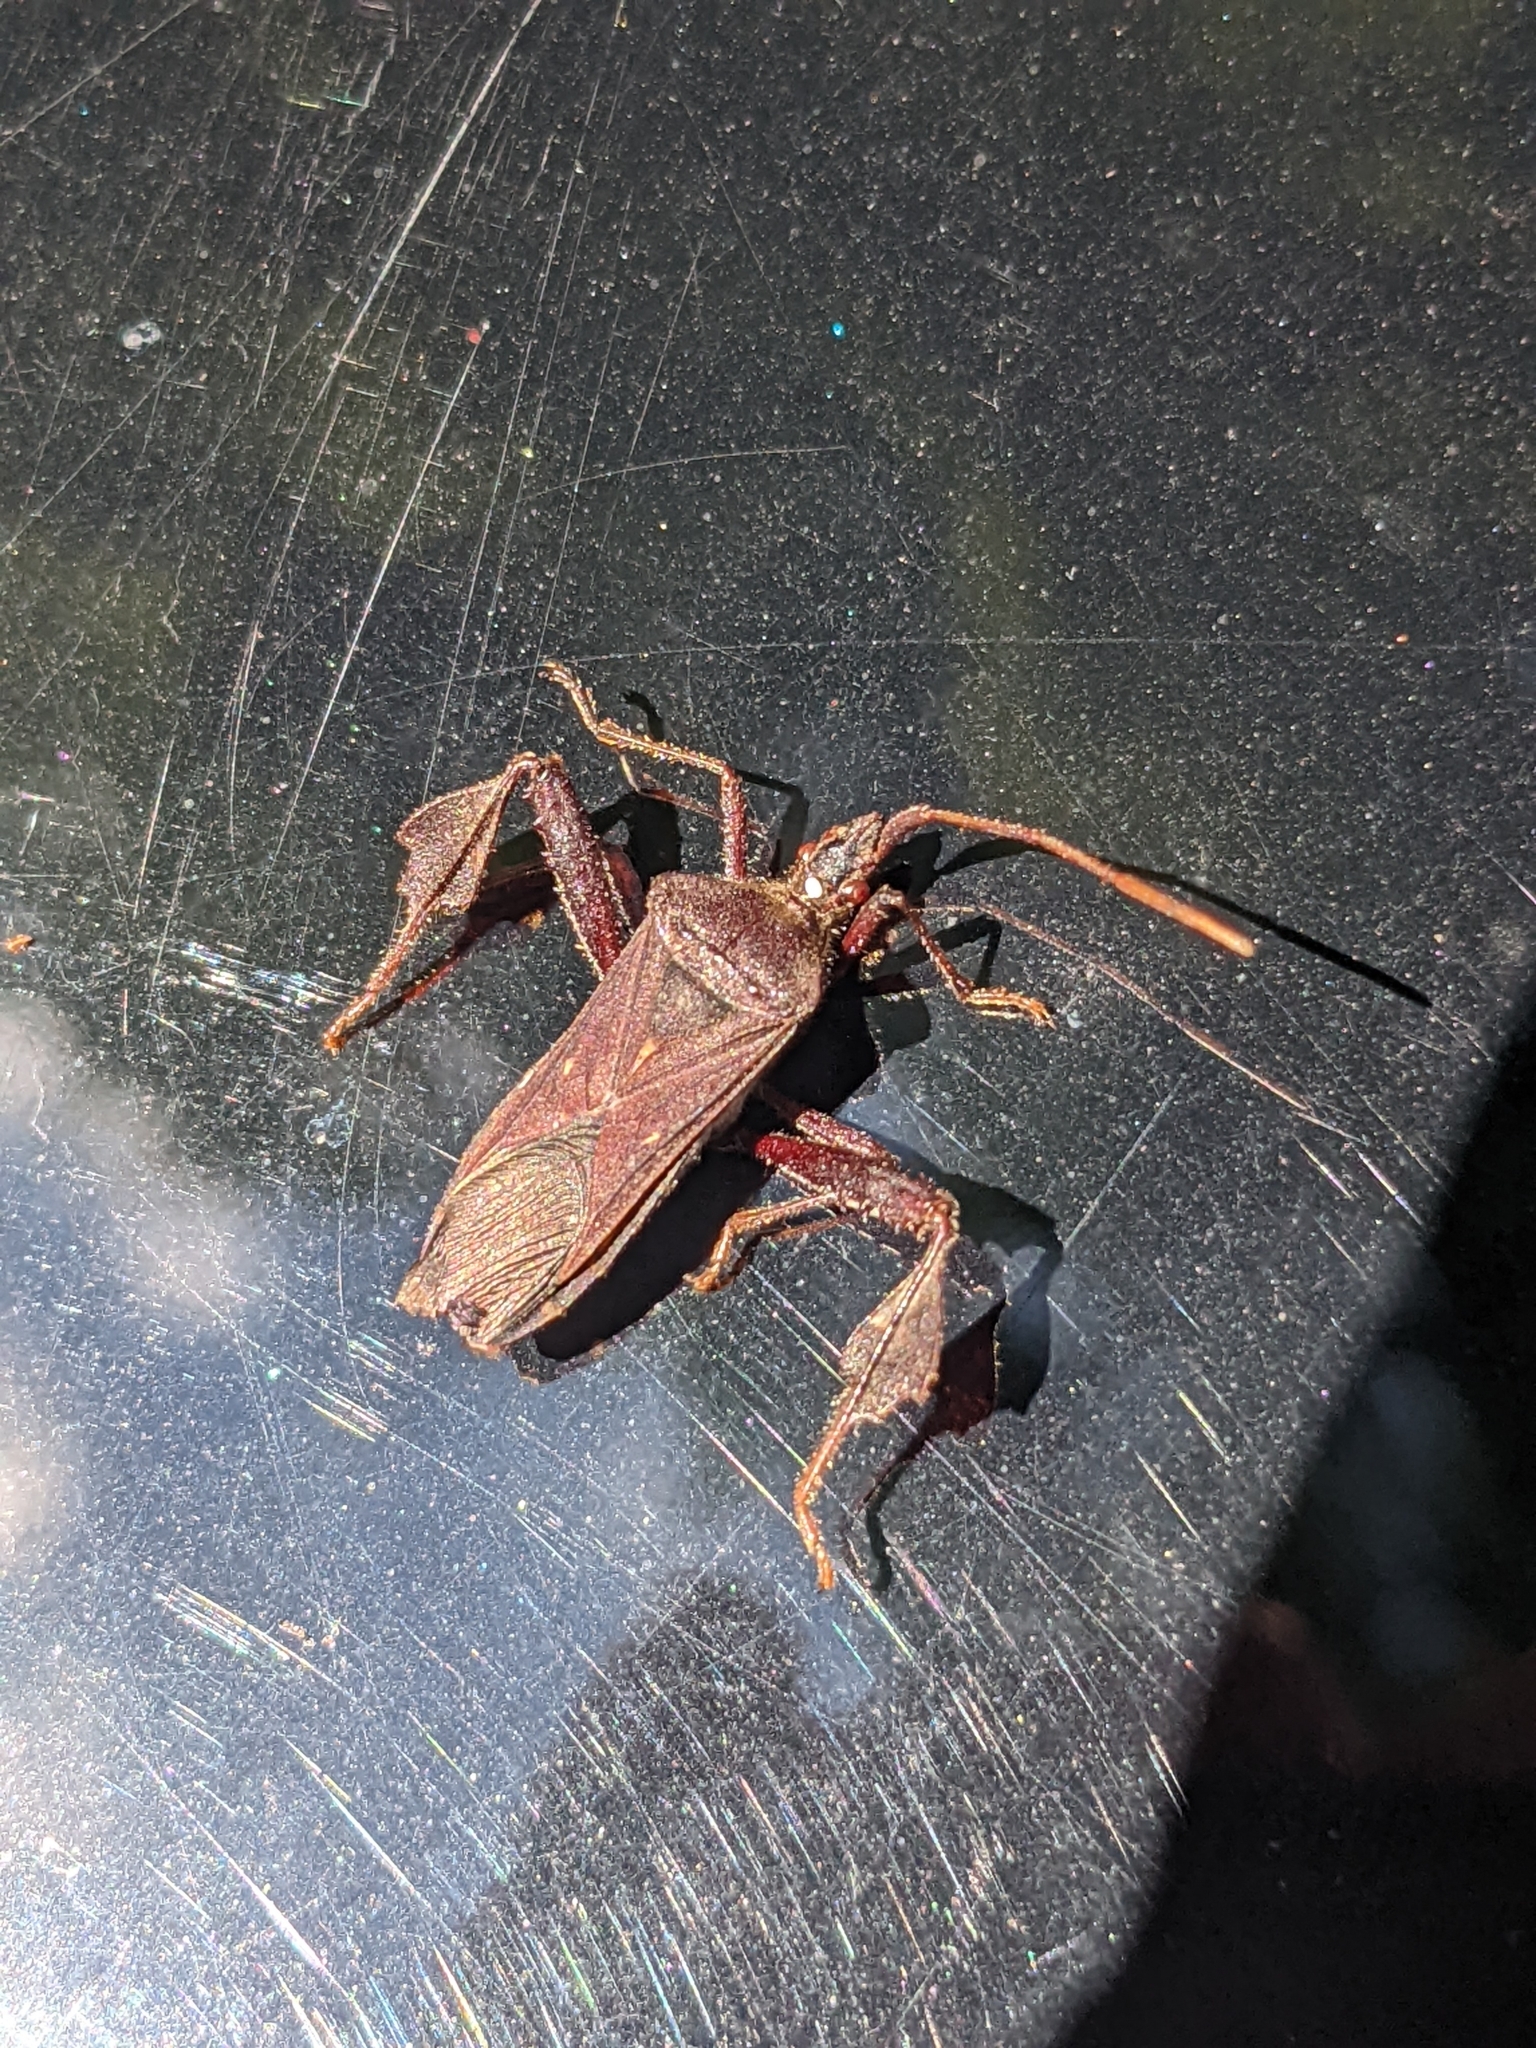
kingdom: Animalia
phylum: Arthropoda
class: Insecta
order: Hemiptera
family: Coreidae
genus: Leptoglossus
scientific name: Leptoglossus oppositus
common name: Northern leaf-footed bug
